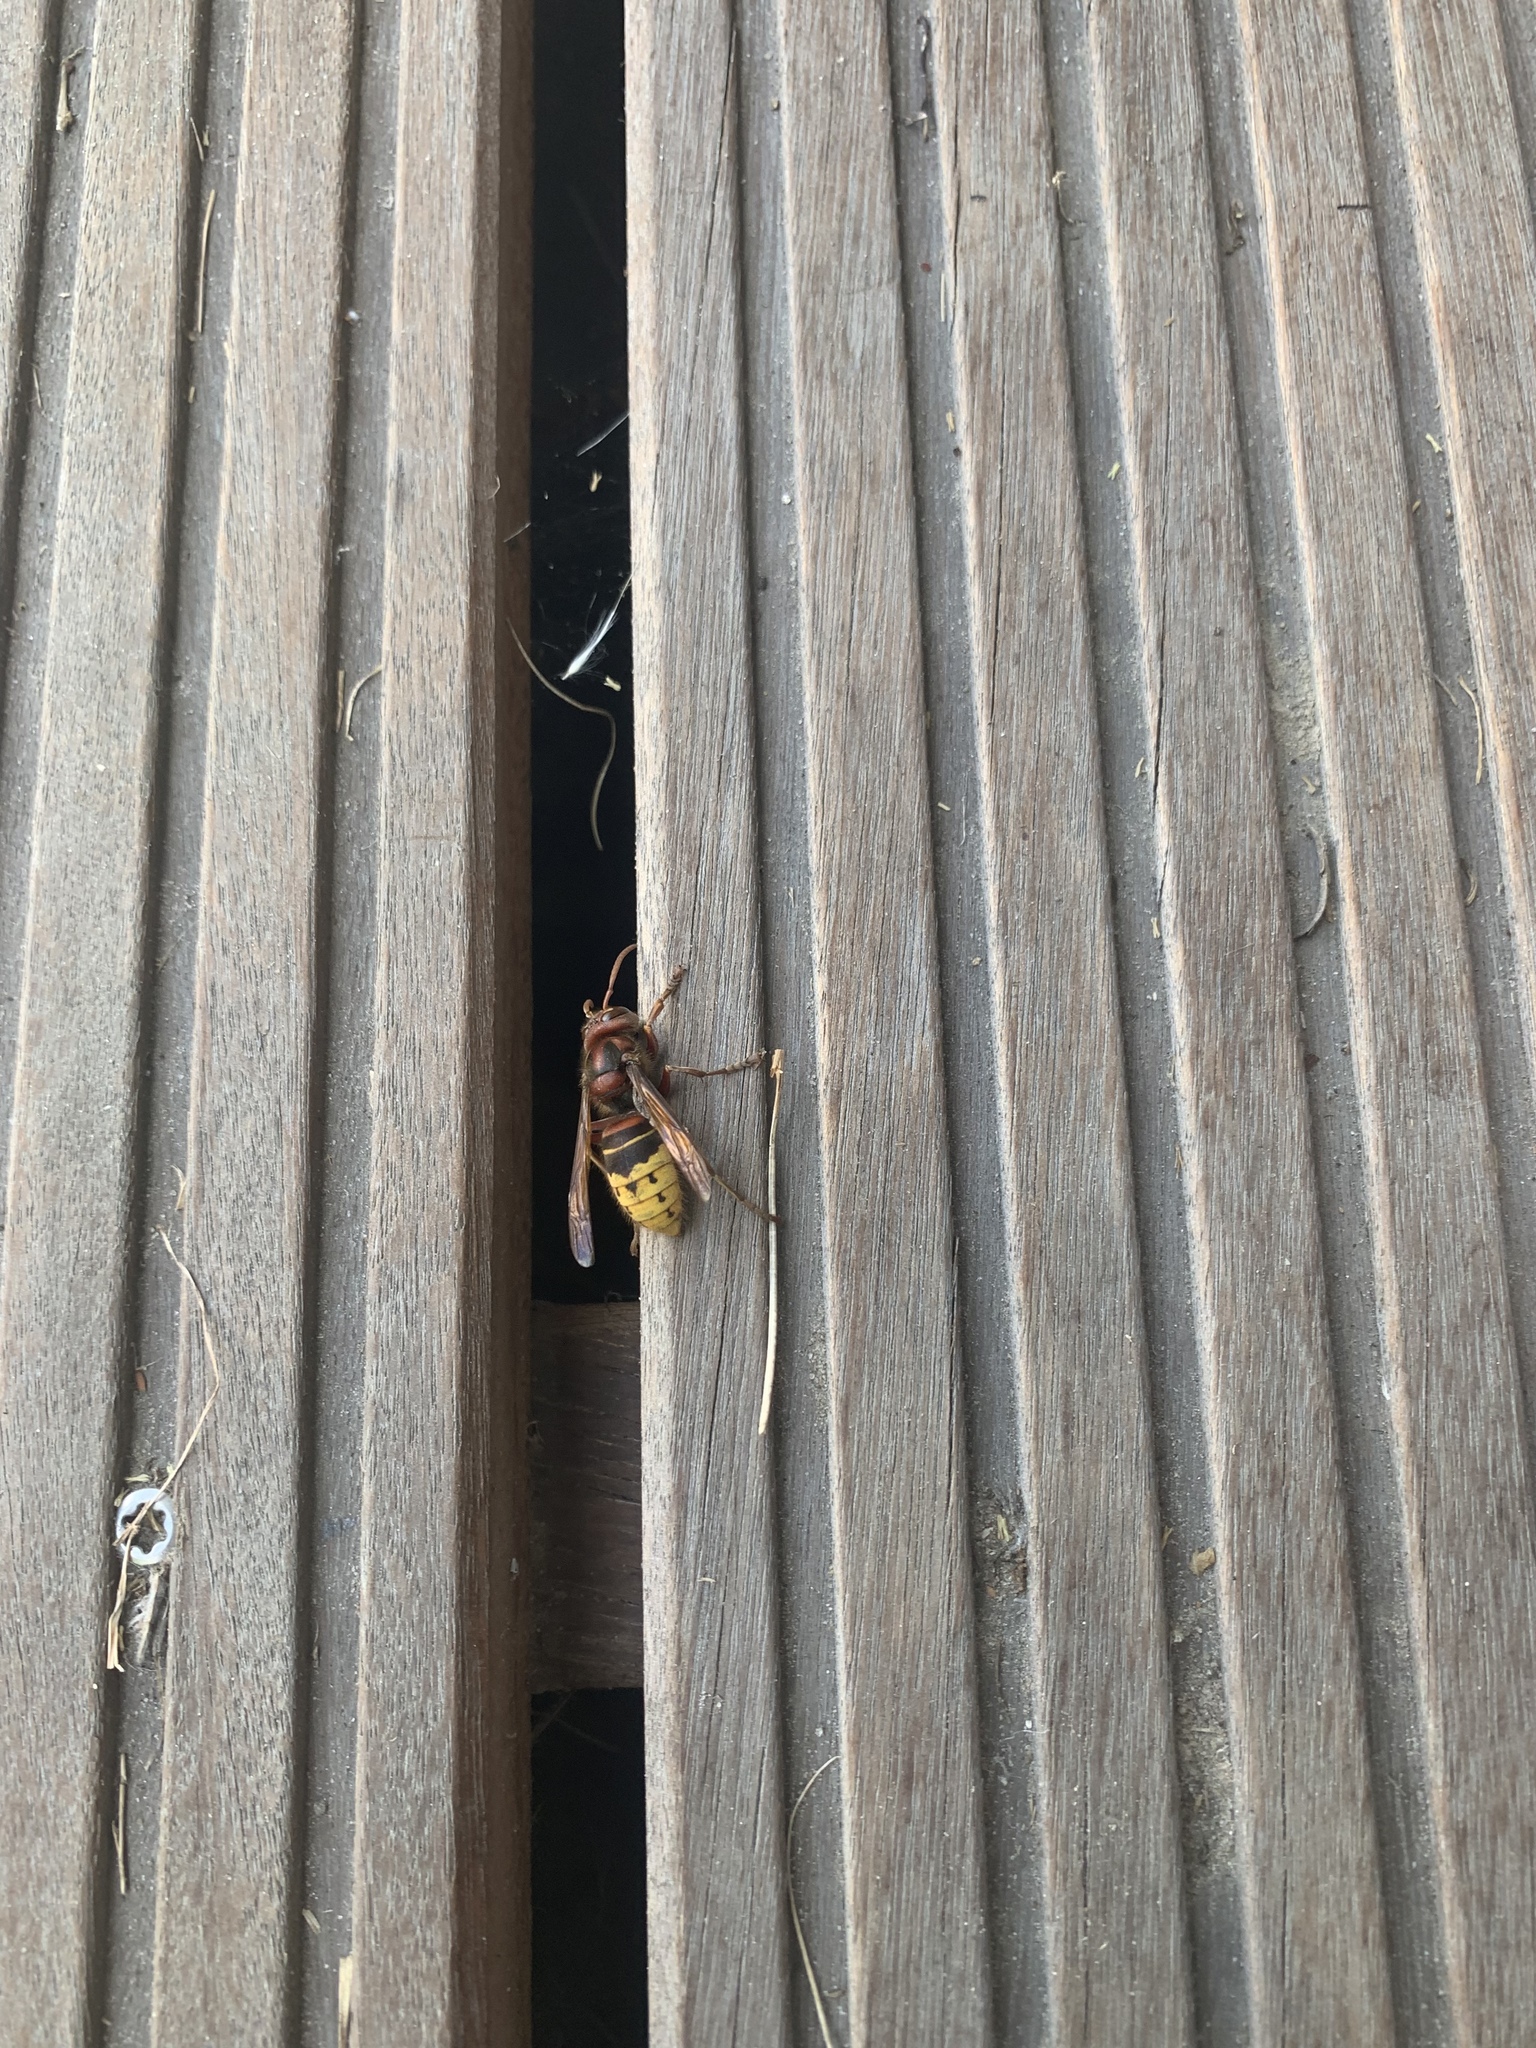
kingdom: Animalia
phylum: Arthropoda
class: Insecta
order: Hymenoptera
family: Vespidae
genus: Vespa
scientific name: Vespa crabro
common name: Hornet
